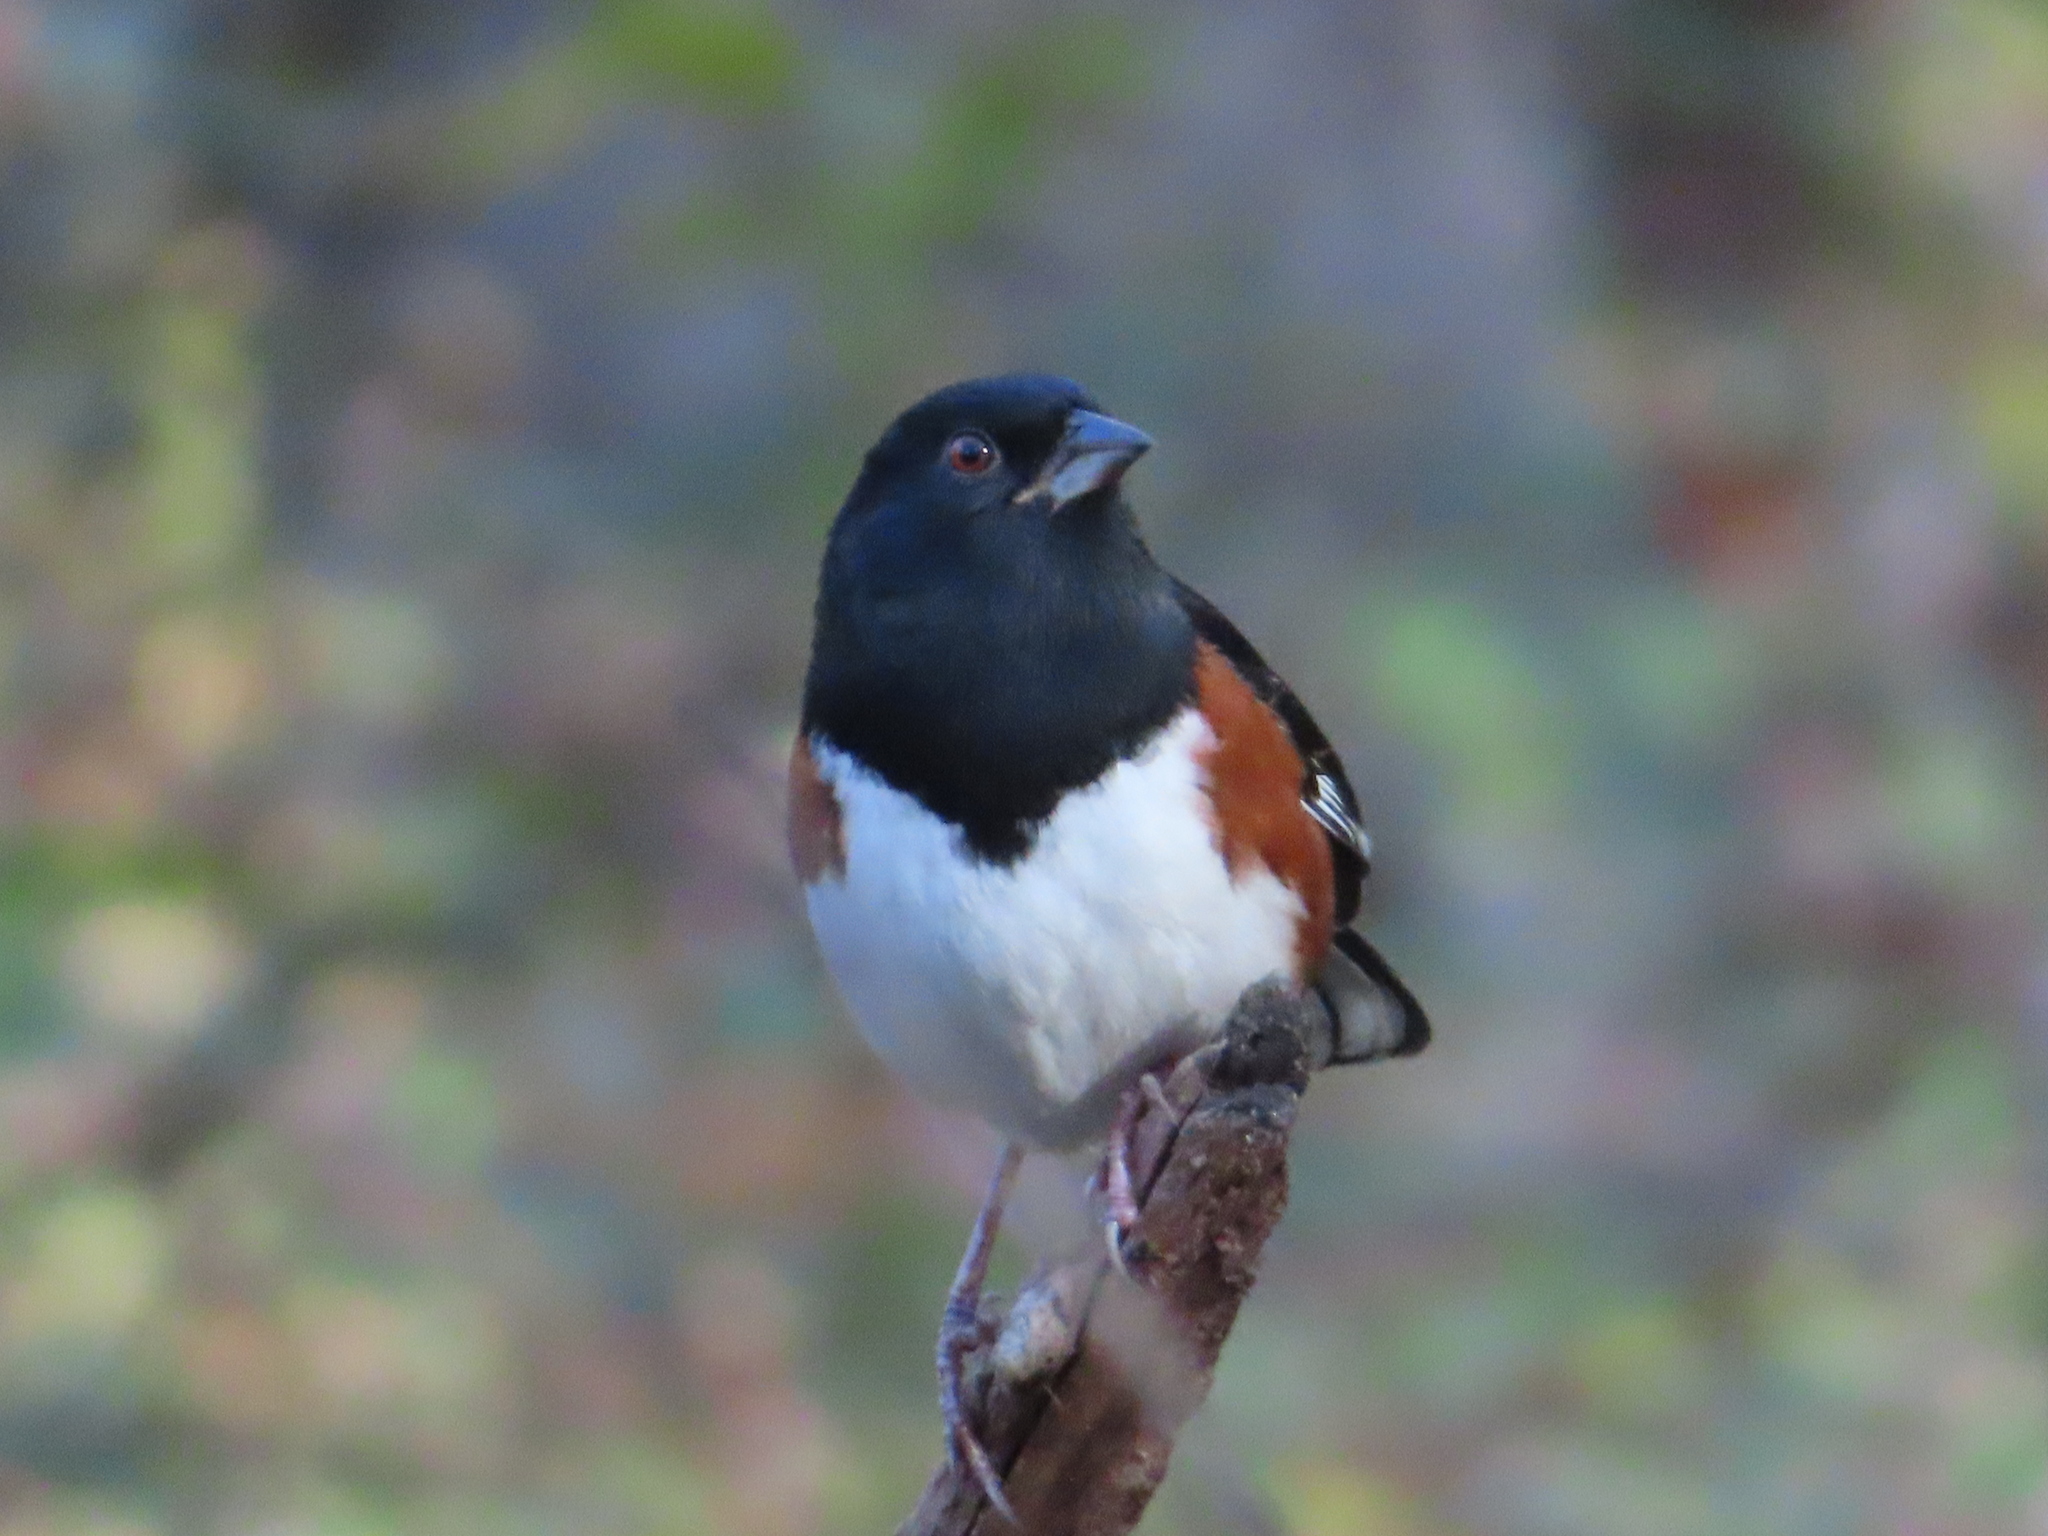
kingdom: Animalia
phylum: Chordata
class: Aves
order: Passeriformes
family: Passerellidae
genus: Pipilo
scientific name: Pipilo erythrophthalmus
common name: Eastern towhee
